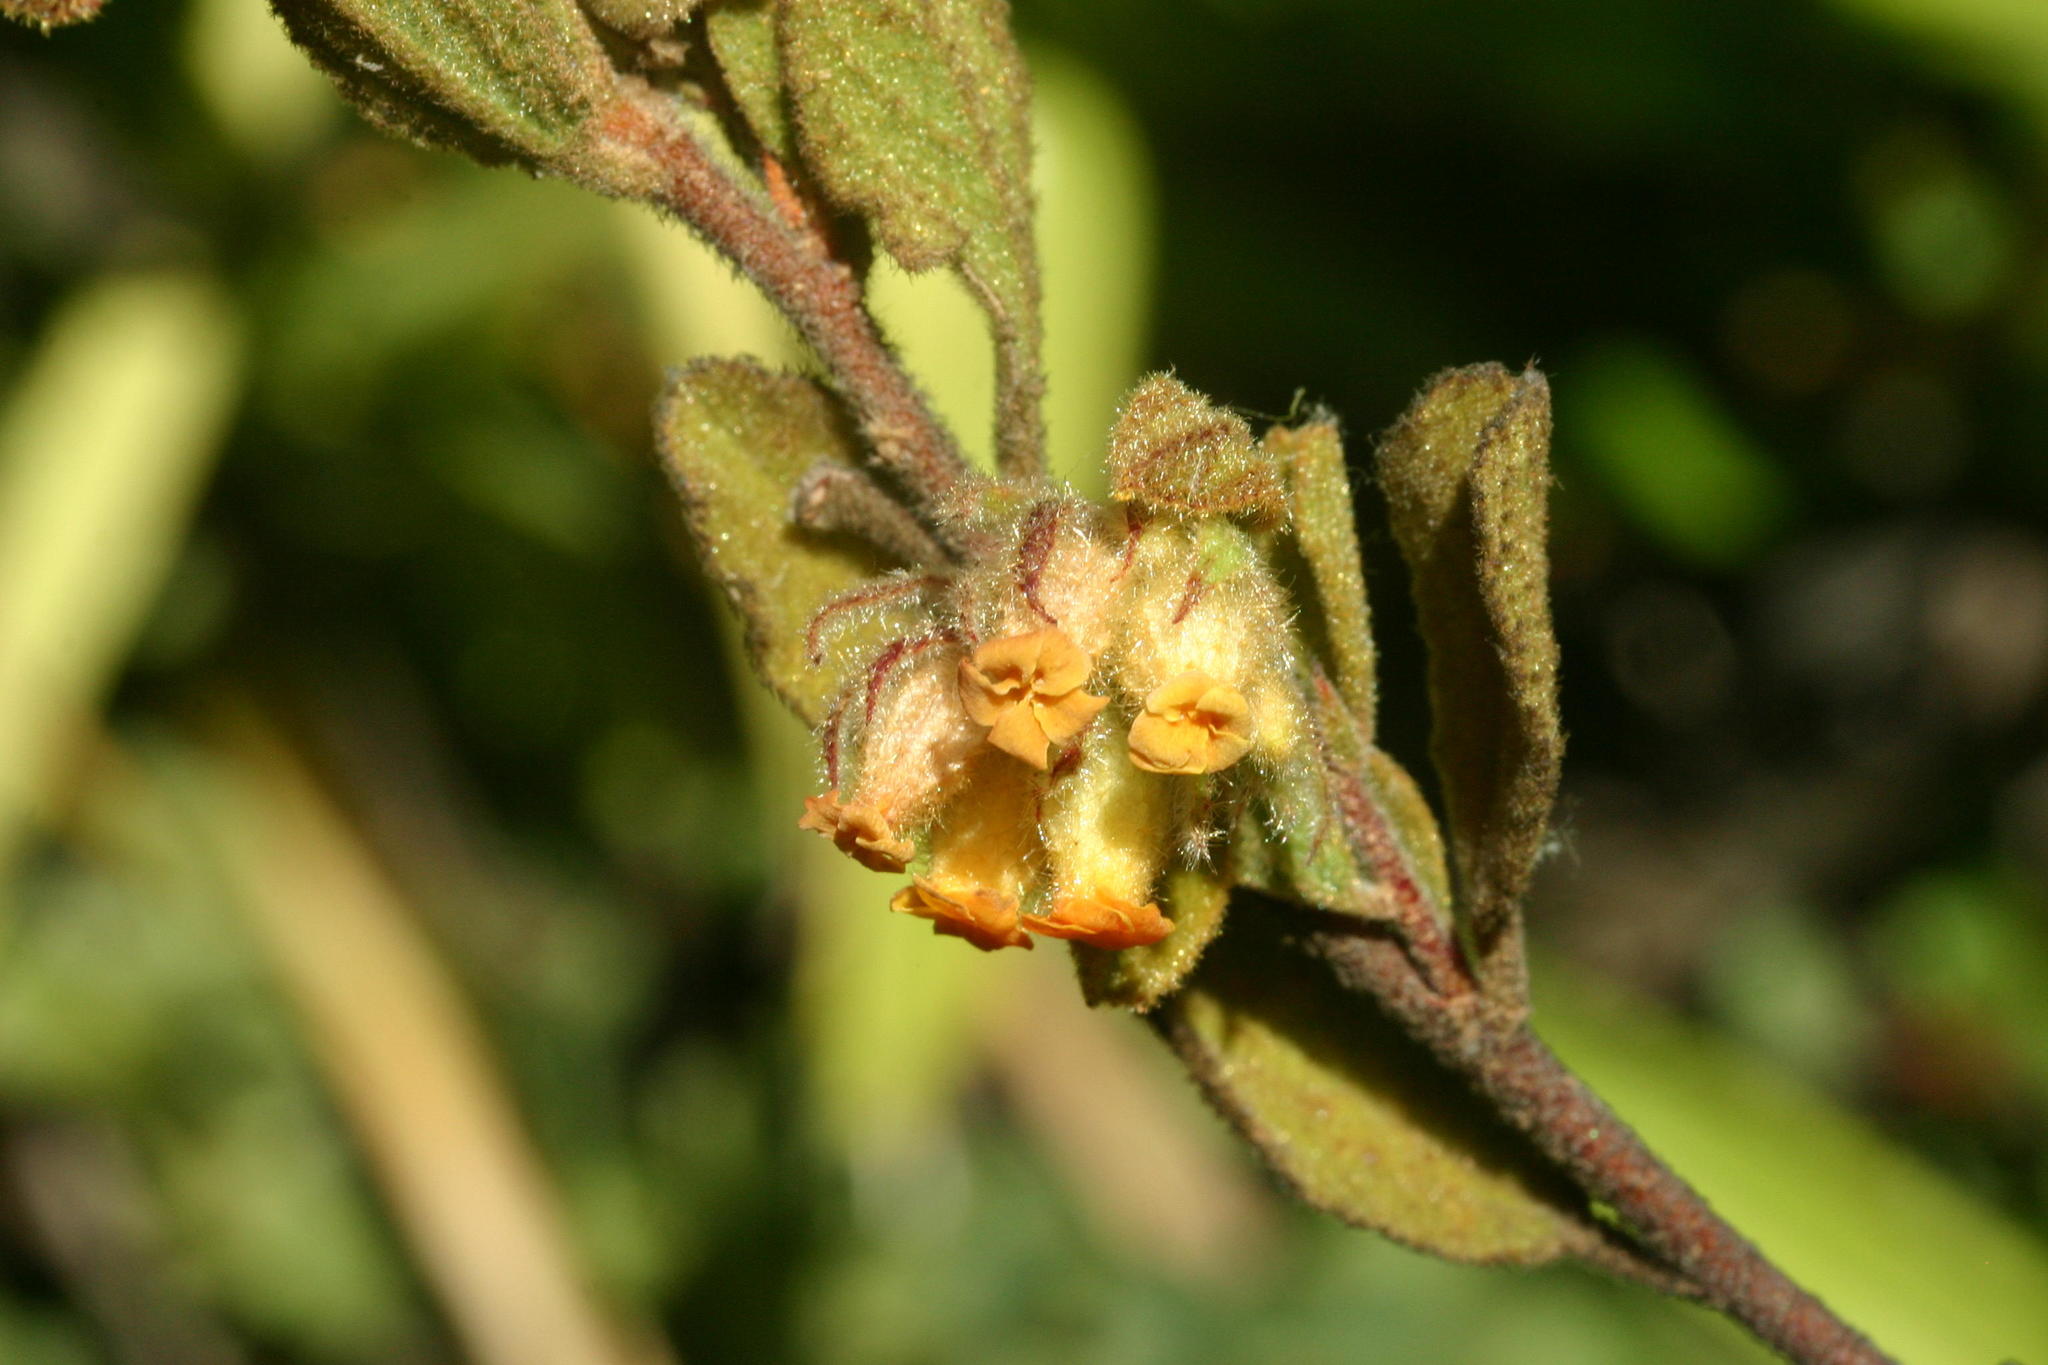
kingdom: Plantae
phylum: Tracheophyta
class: Magnoliopsida
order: Malvales
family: Malvaceae
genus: Hermannia
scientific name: Hermannia salviifolia
